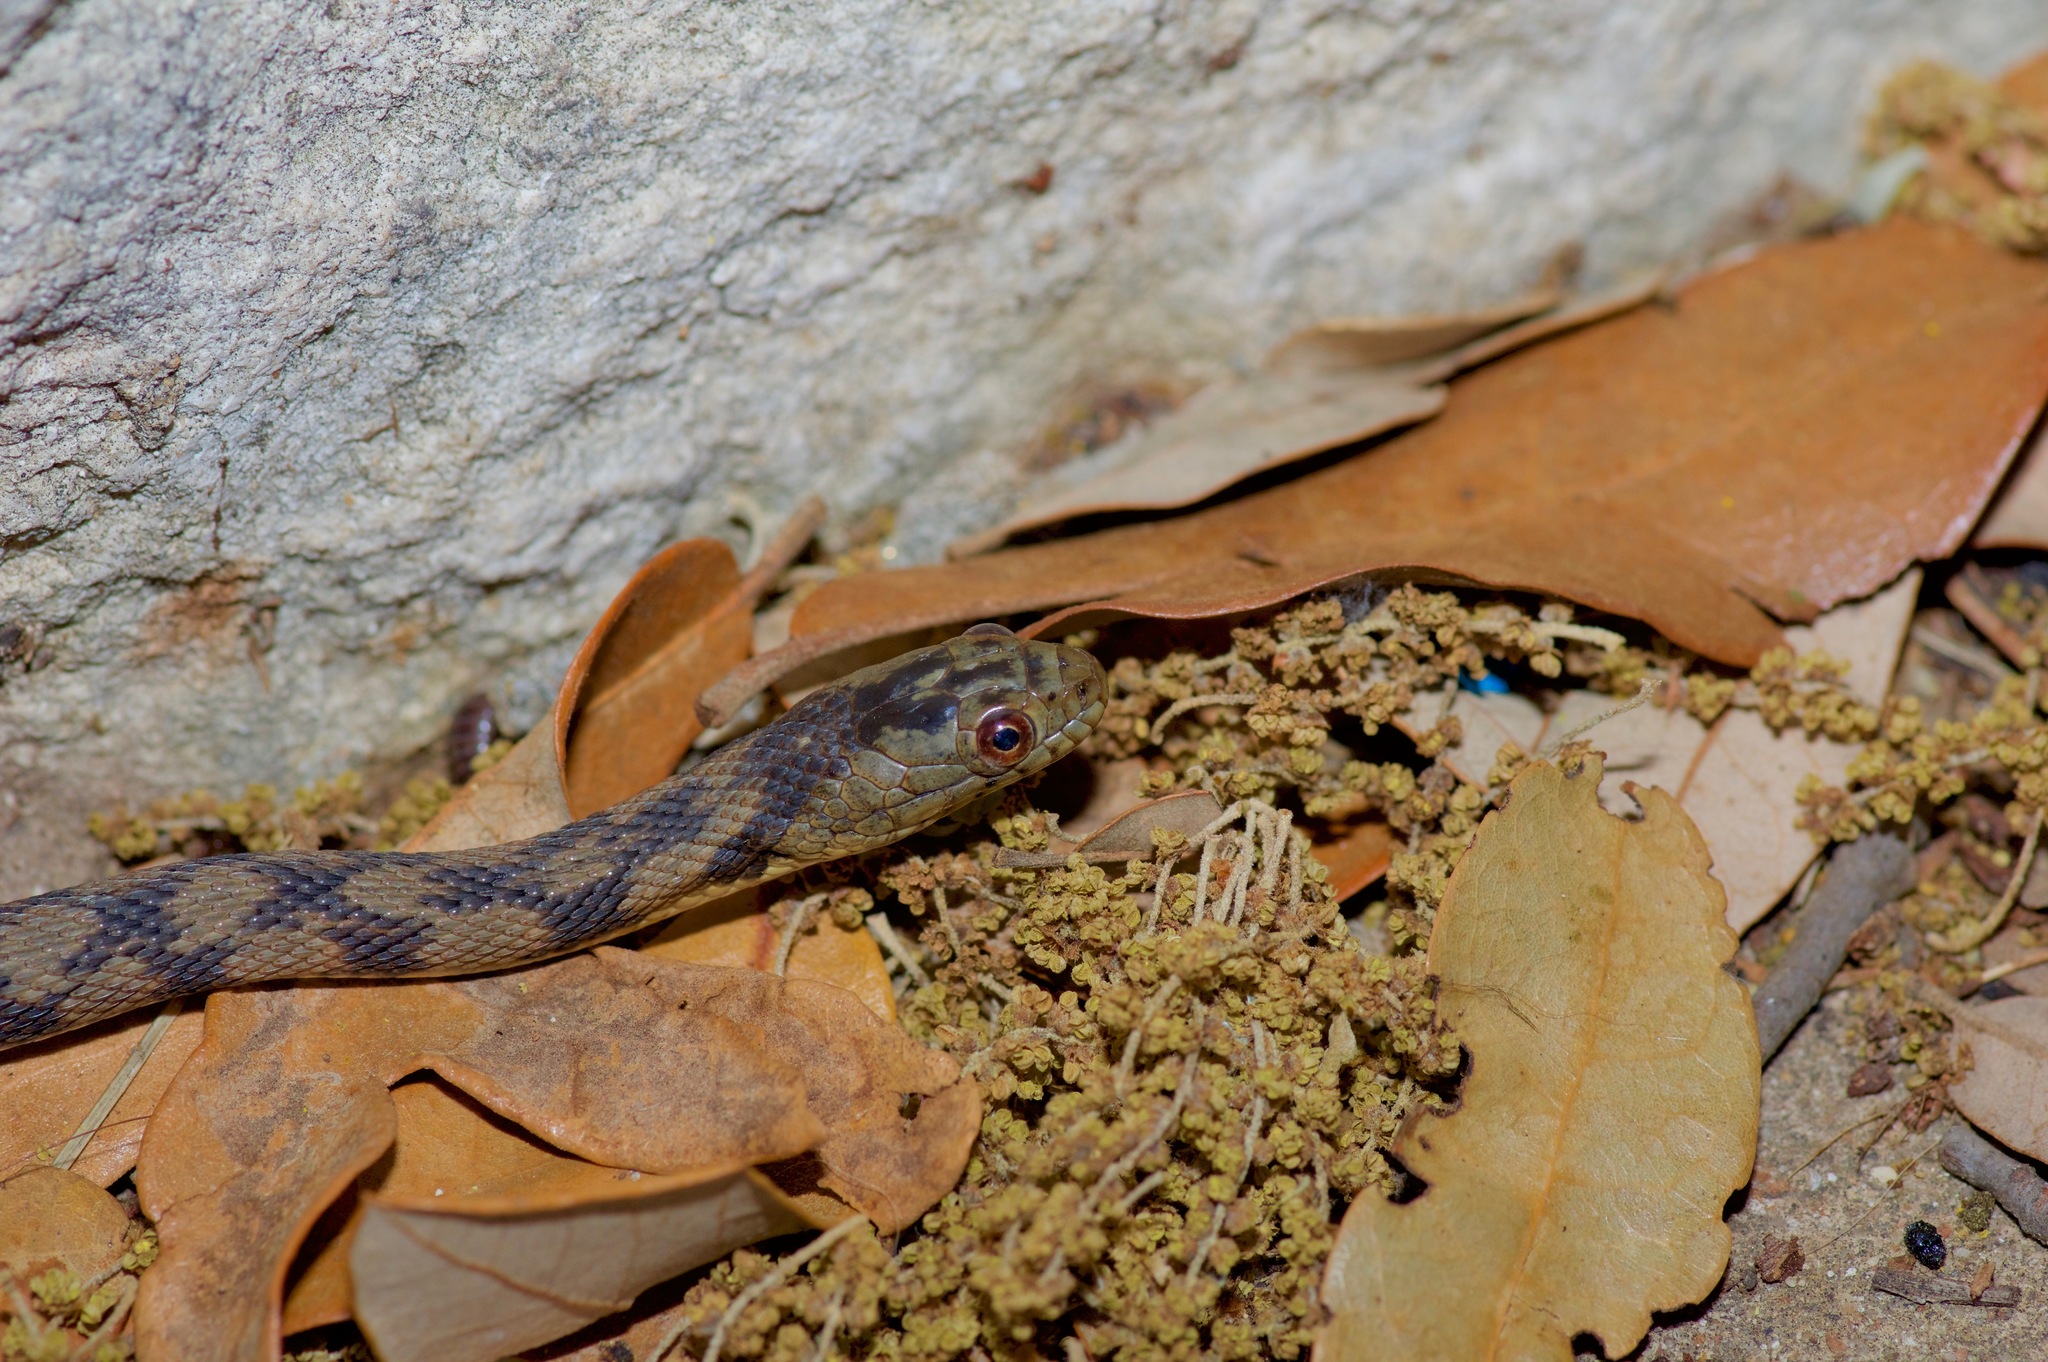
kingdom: Animalia
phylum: Chordata
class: Squamata
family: Colubridae
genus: Nerodia
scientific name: Nerodia rhombifer
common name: Diamondback water snake
